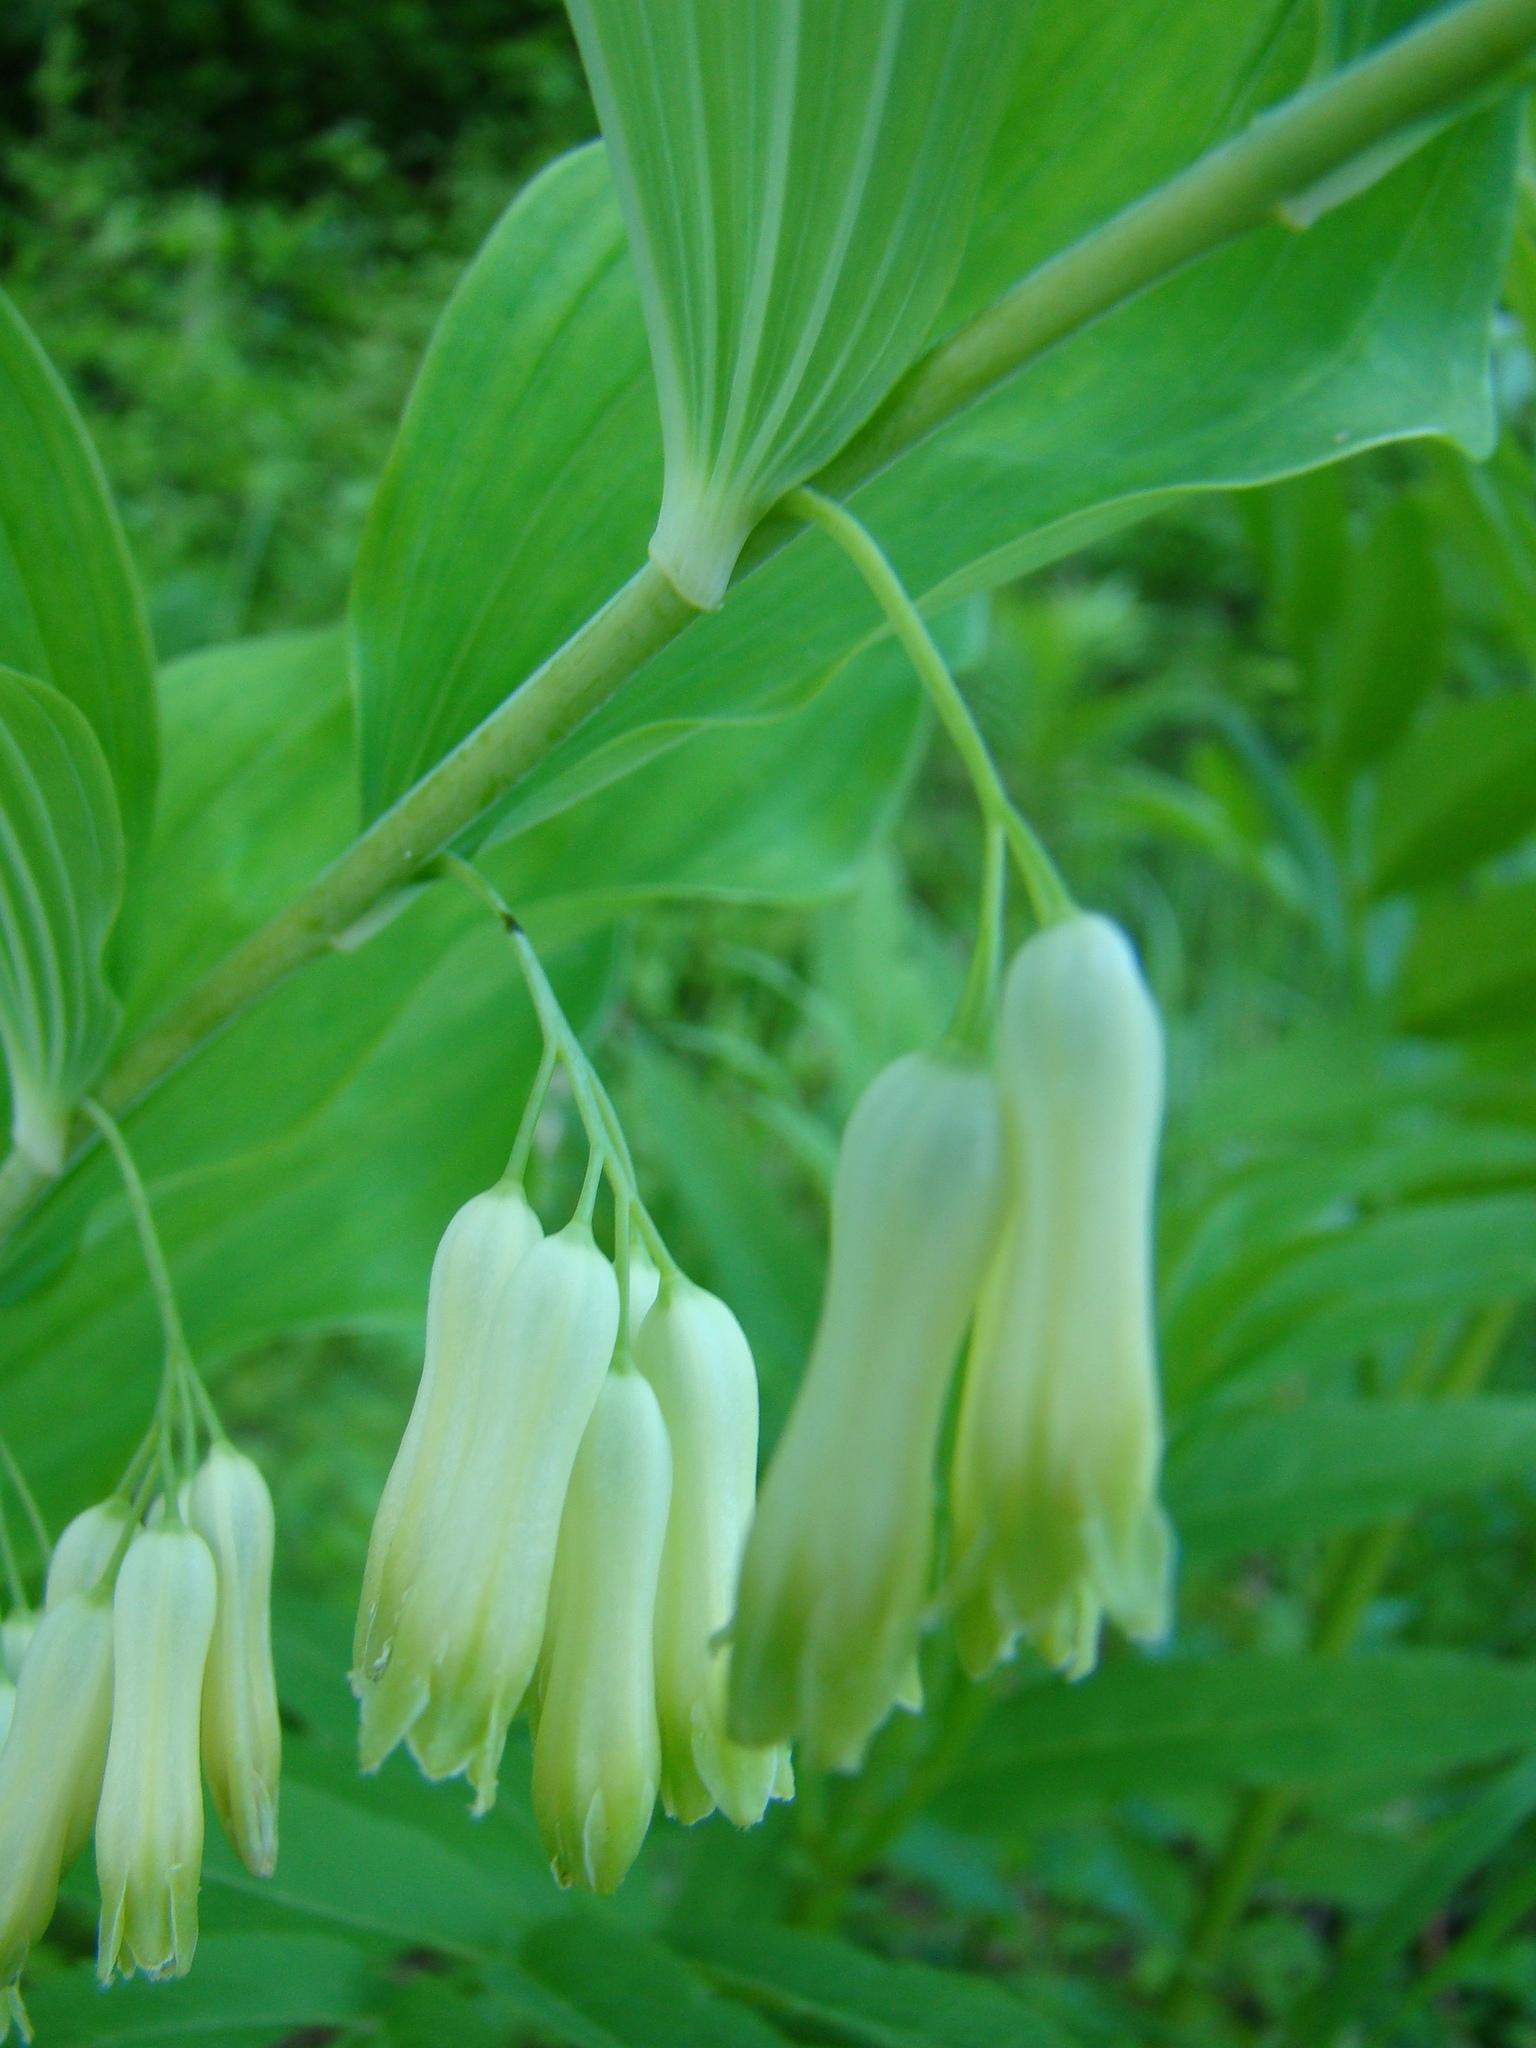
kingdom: Plantae
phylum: Tracheophyta
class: Liliopsida
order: Asparagales
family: Asparagaceae
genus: Polygonatum
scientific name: Polygonatum multiflorum
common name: Solomon's-seal
